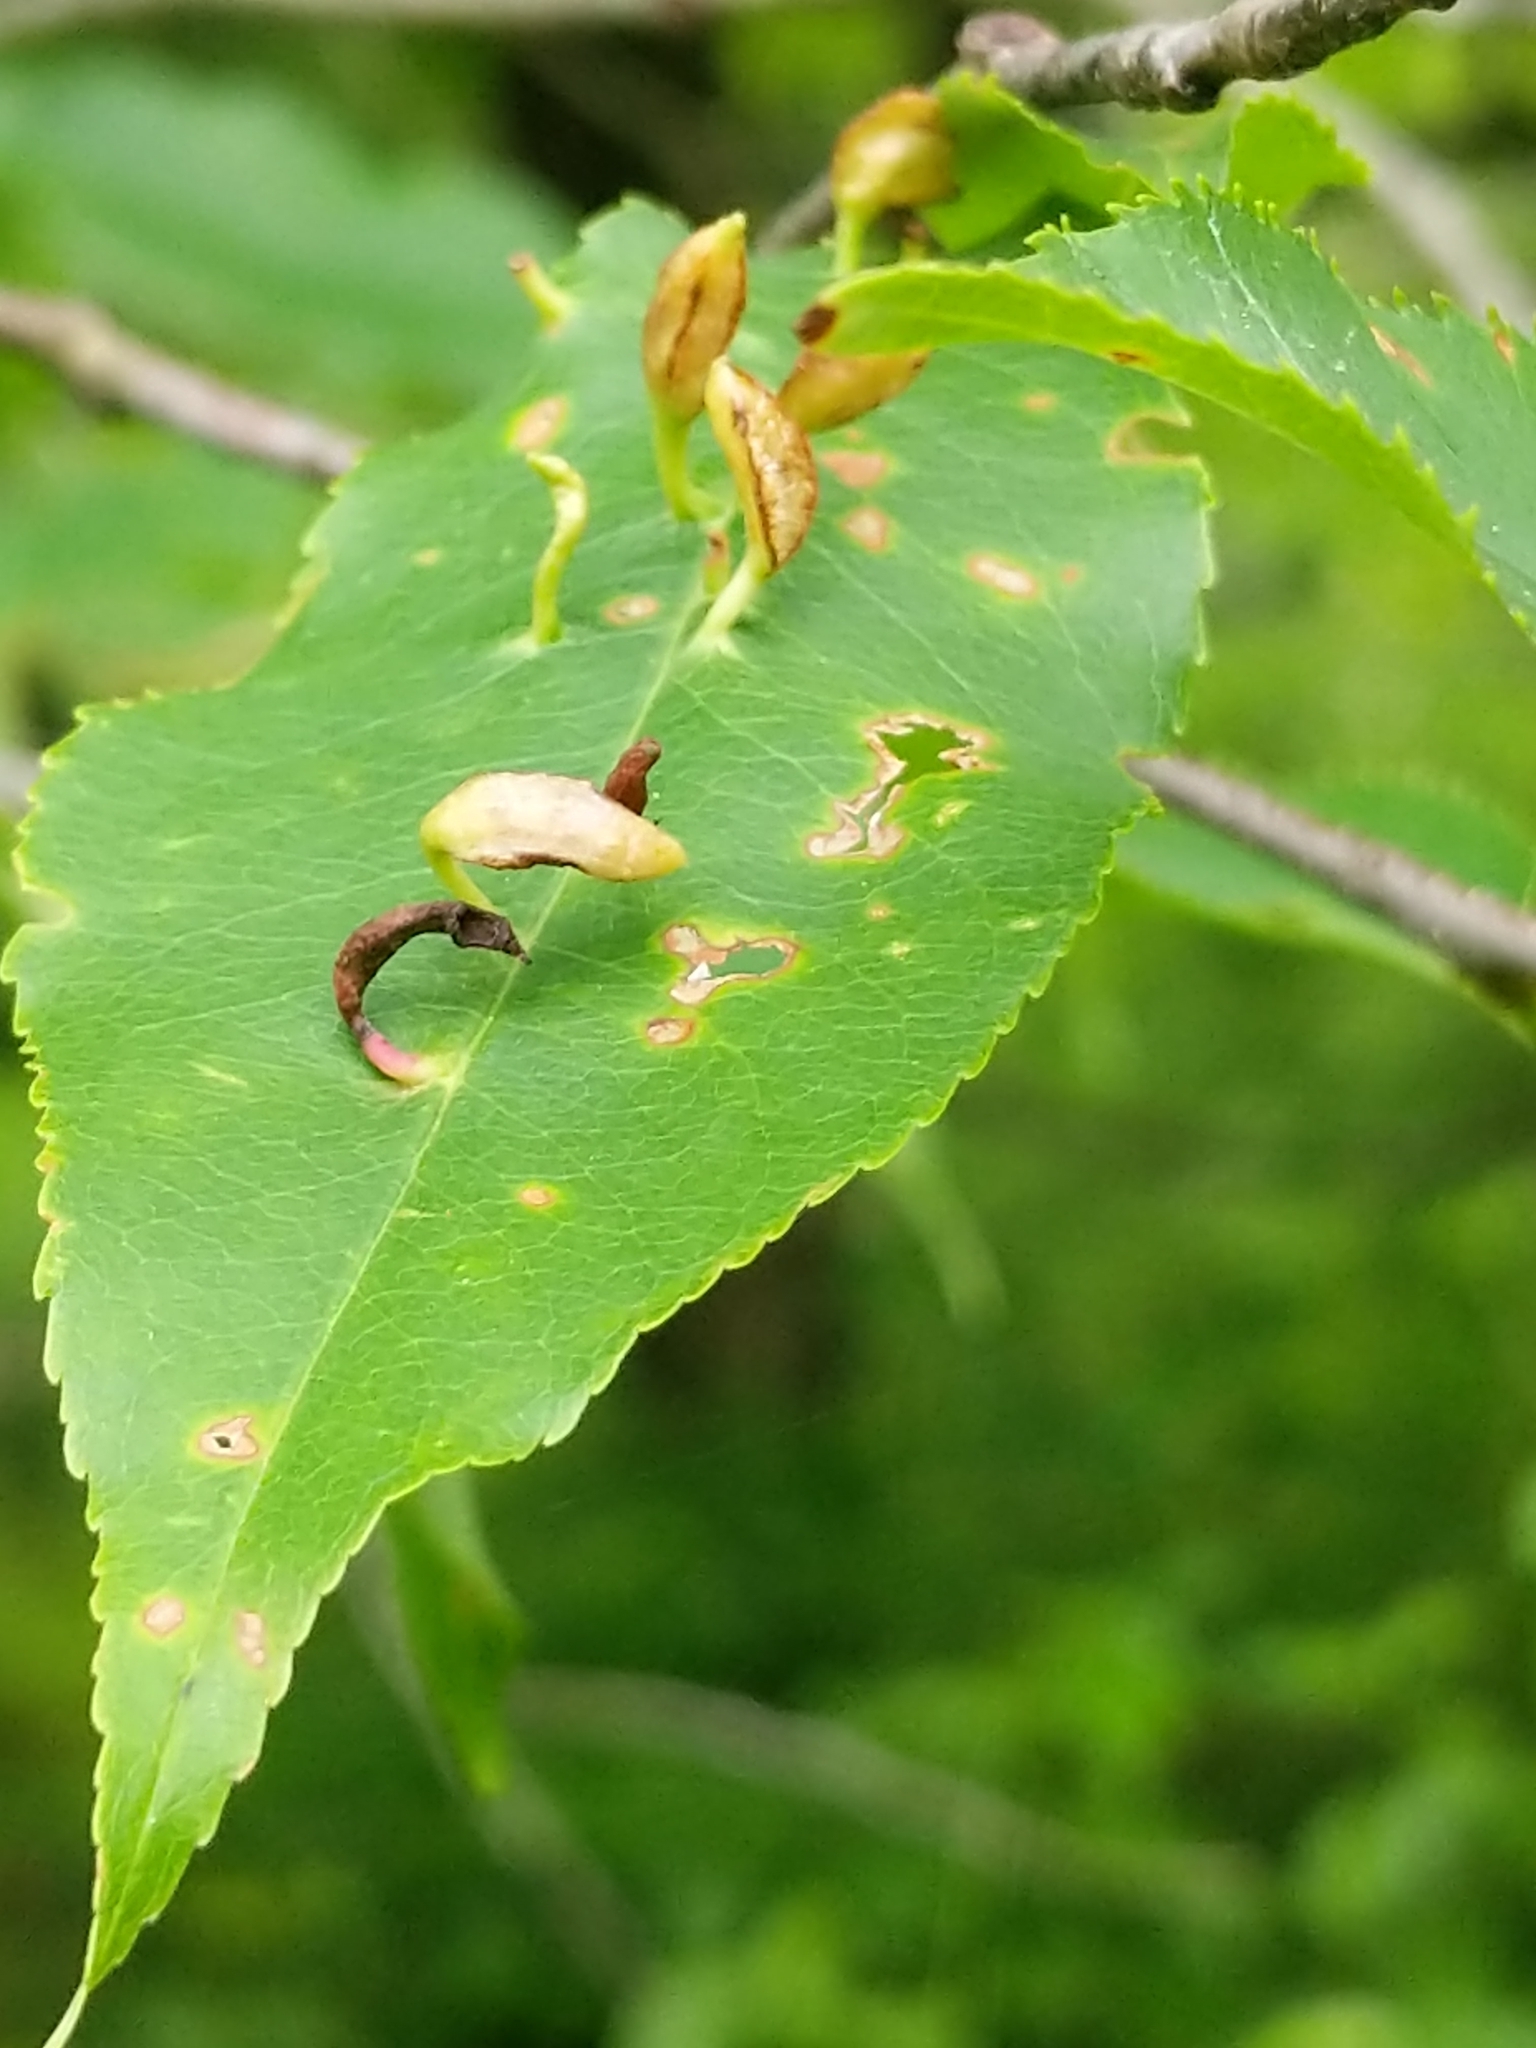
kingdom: Animalia
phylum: Arthropoda
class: Arachnida
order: Trombidiformes
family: Eriophyidae
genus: Eriophyes
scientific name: Eriophyes
